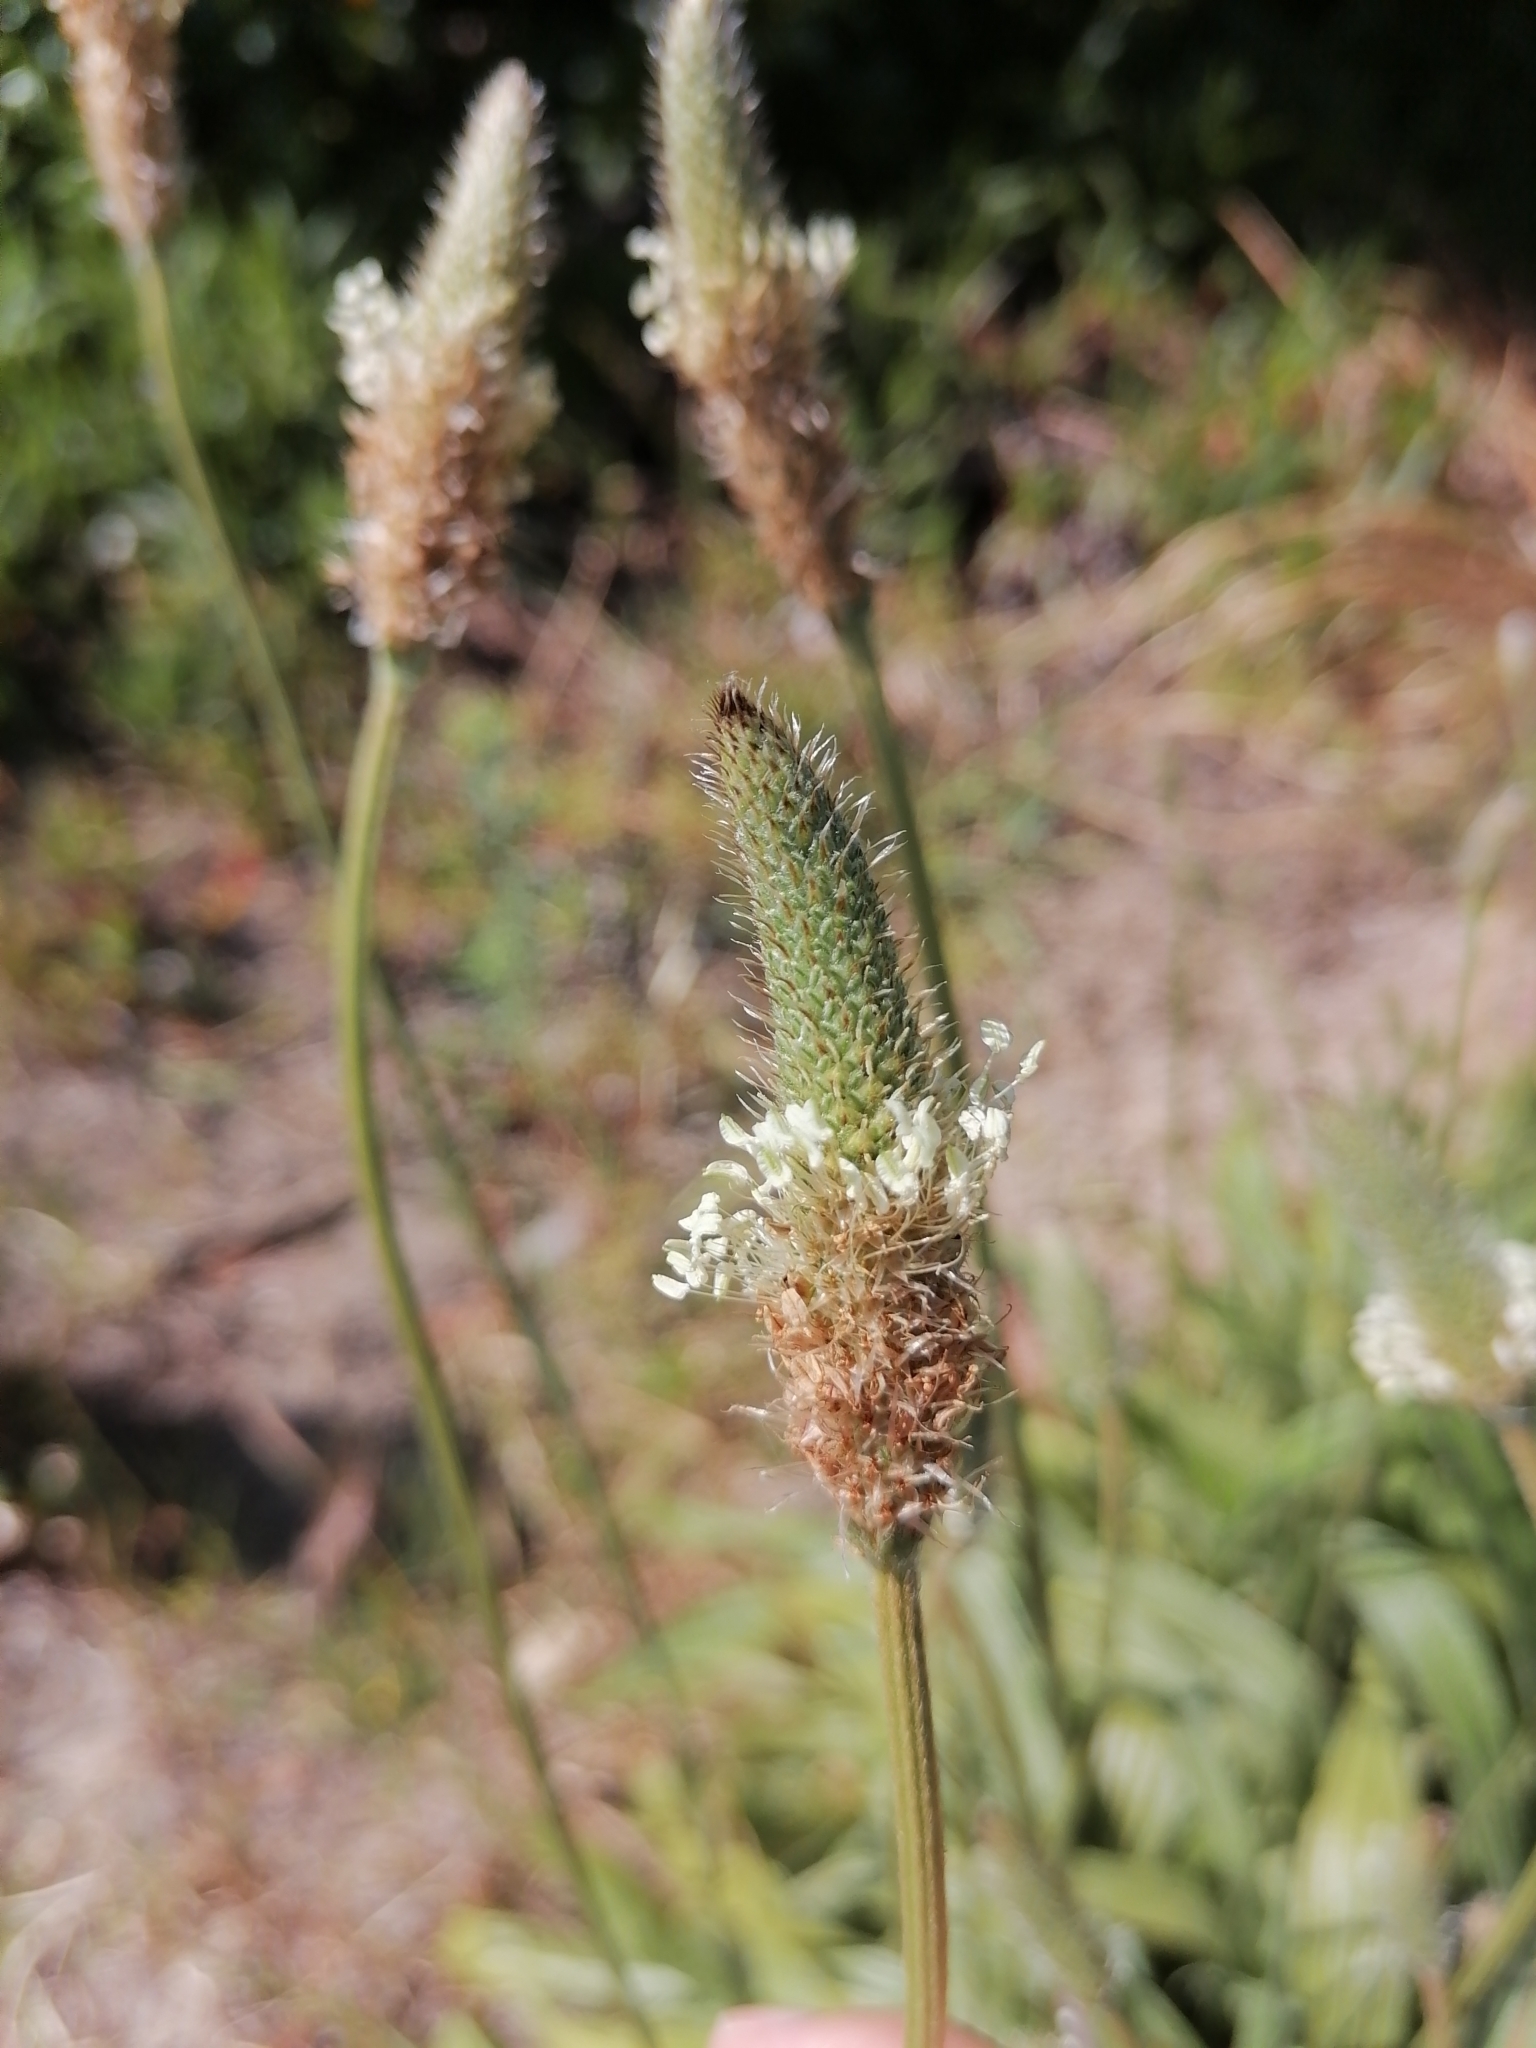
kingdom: Plantae
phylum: Tracheophyta
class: Magnoliopsida
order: Lamiales
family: Plantaginaceae
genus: Plantago
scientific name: Plantago lanceolata
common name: Ribwort plantain
